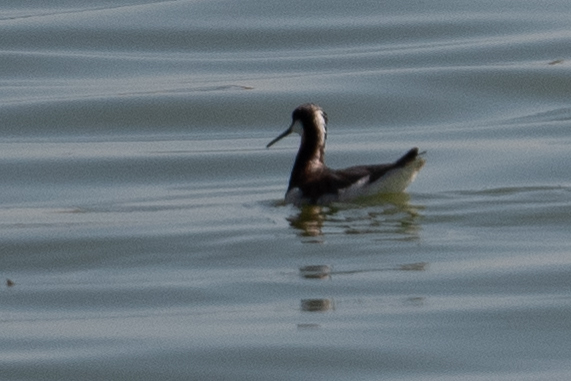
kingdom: Animalia
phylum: Chordata
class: Aves
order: Charadriiformes
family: Scolopacidae
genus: Phalaropus
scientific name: Phalaropus tricolor
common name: Wilson's phalarope
